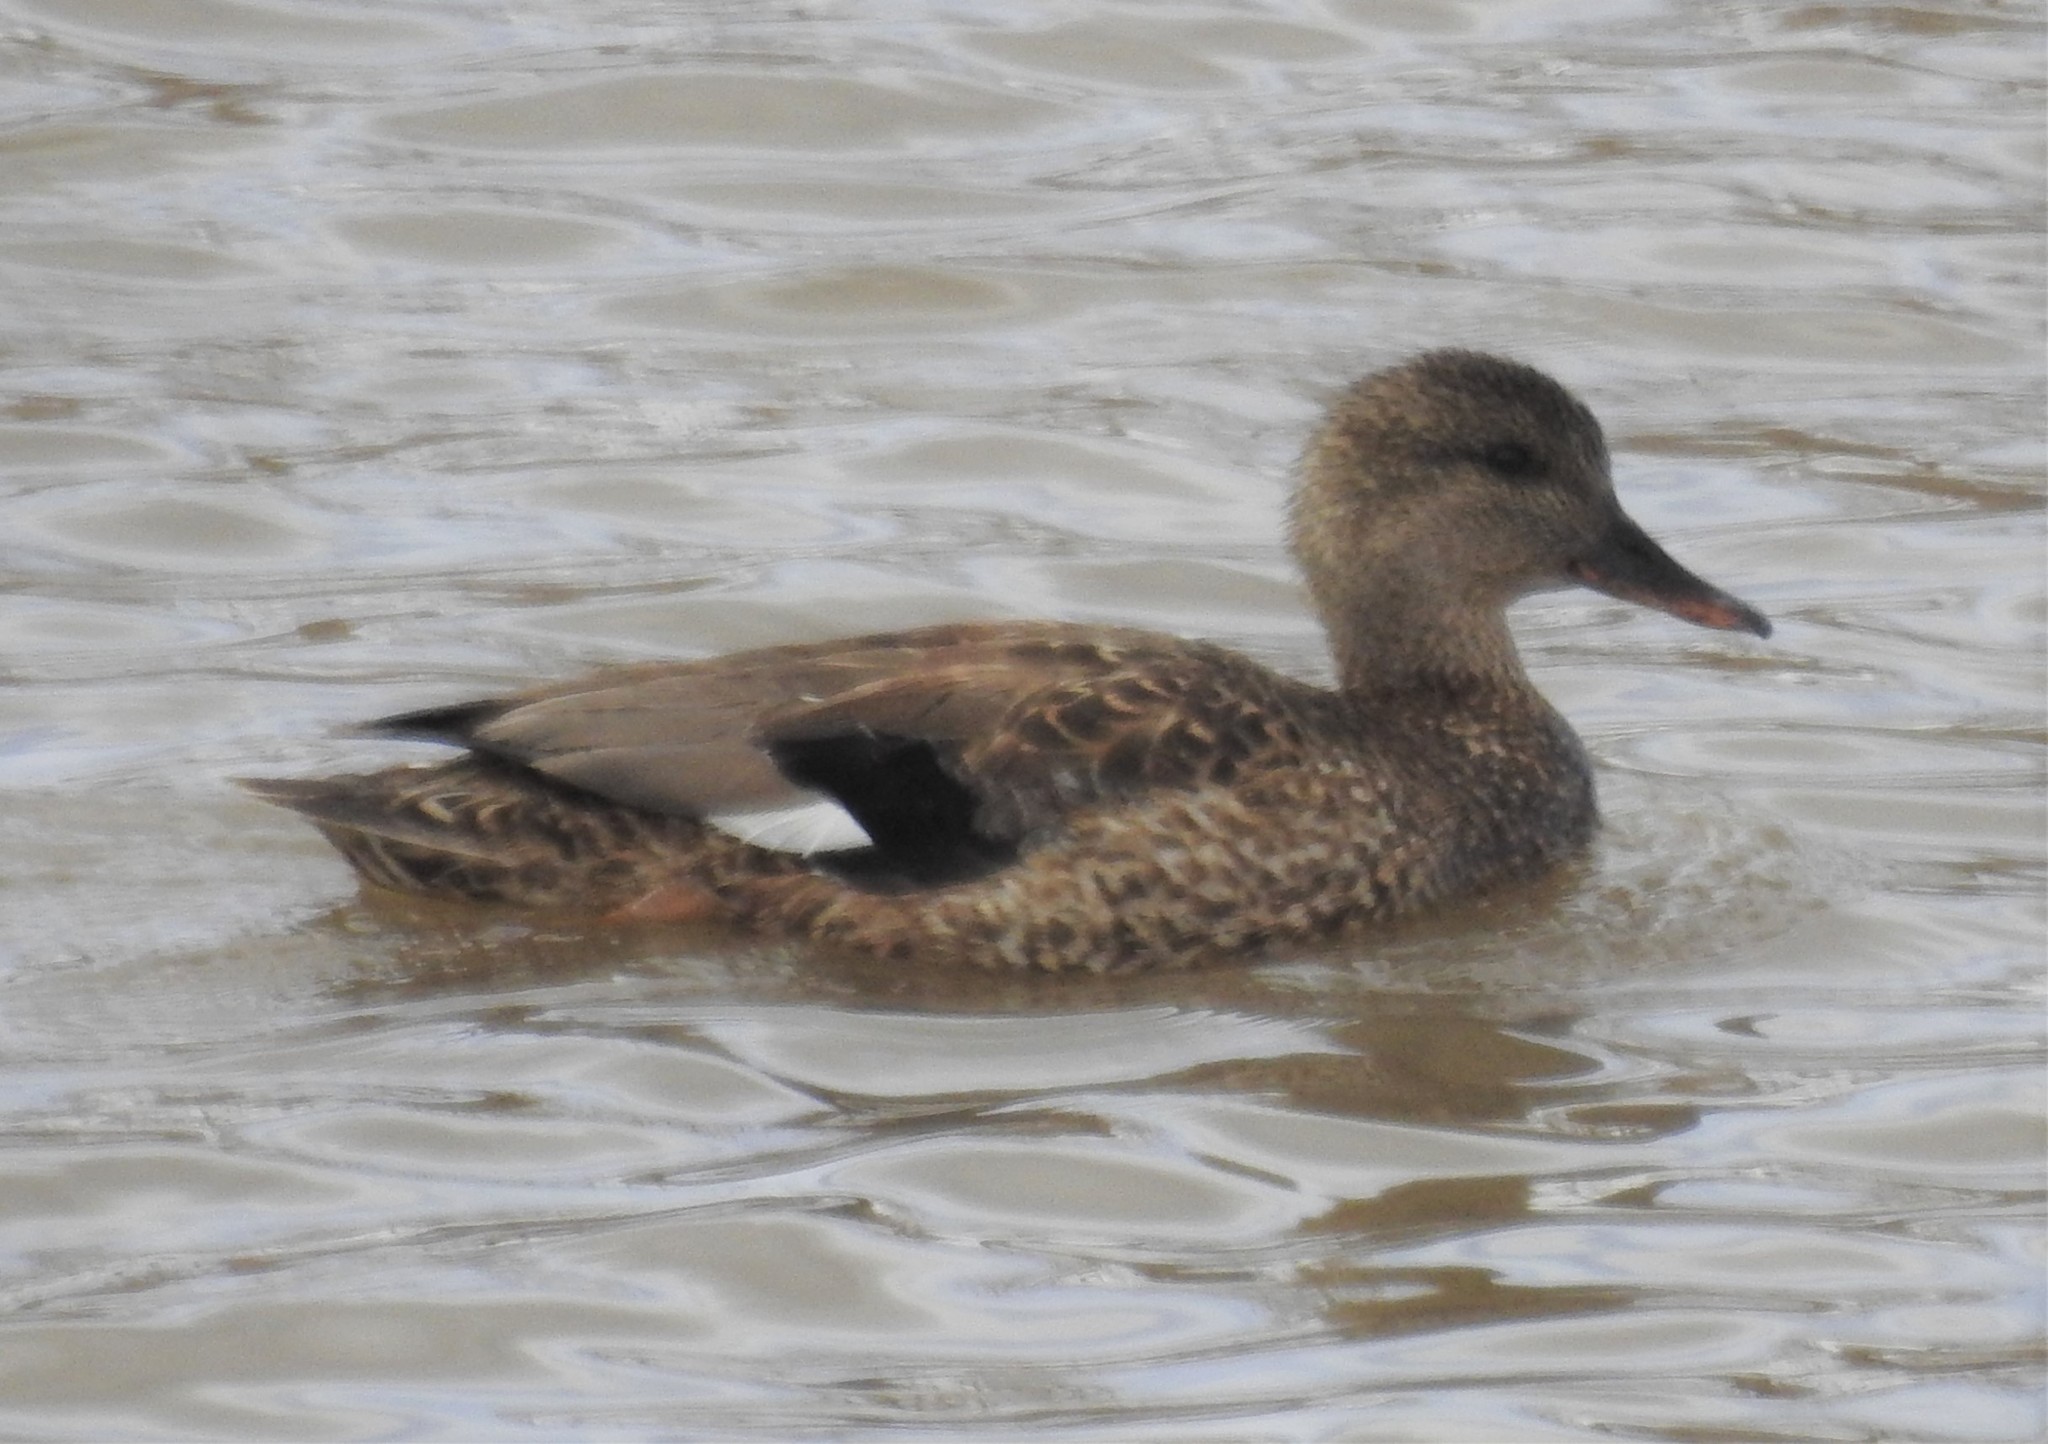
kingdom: Animalia
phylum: Chordata
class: Aves
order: Anseriformes
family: Anatidae
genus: Mareca
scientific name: Mareca strepera
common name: Gadwall
